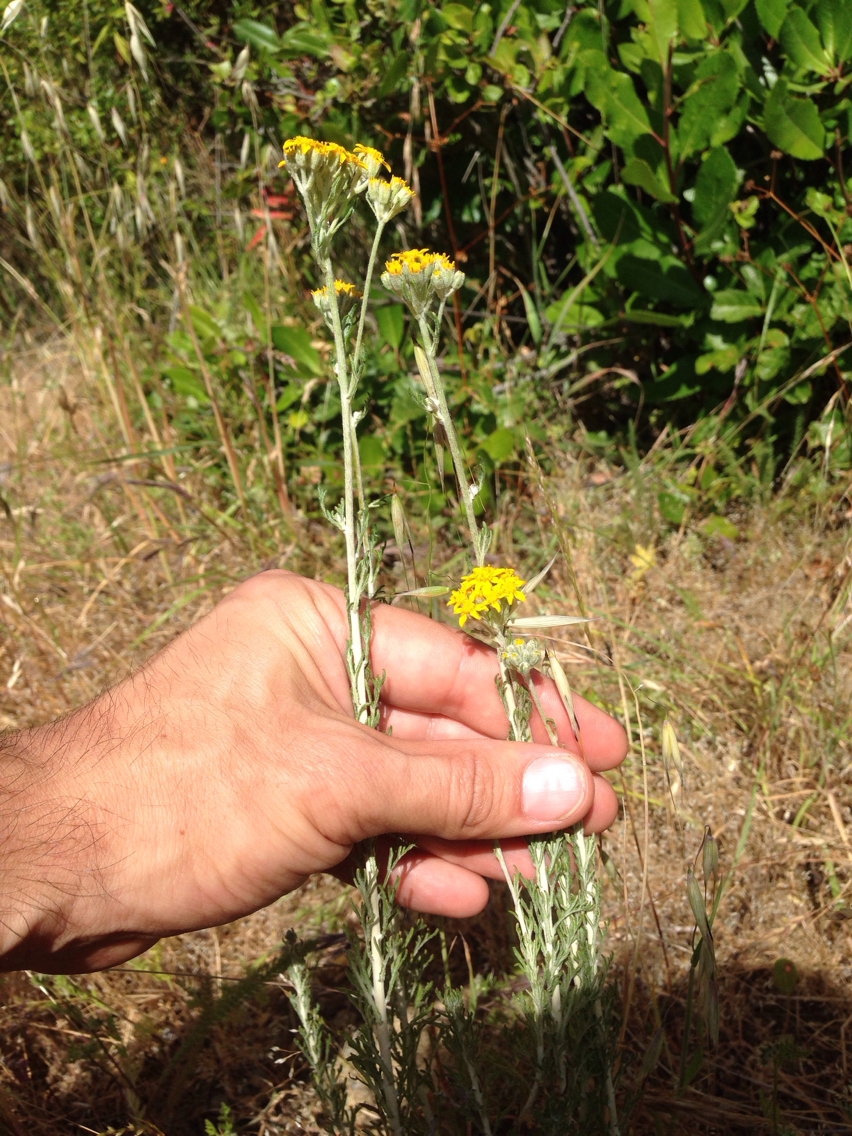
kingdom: Plantae
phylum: Tracheophyta
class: Magnoliopsida
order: Asterales
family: Asteraceae
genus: Eriophyllum
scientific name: Eriophyllum confertiflorum
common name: Golden-yarrow
